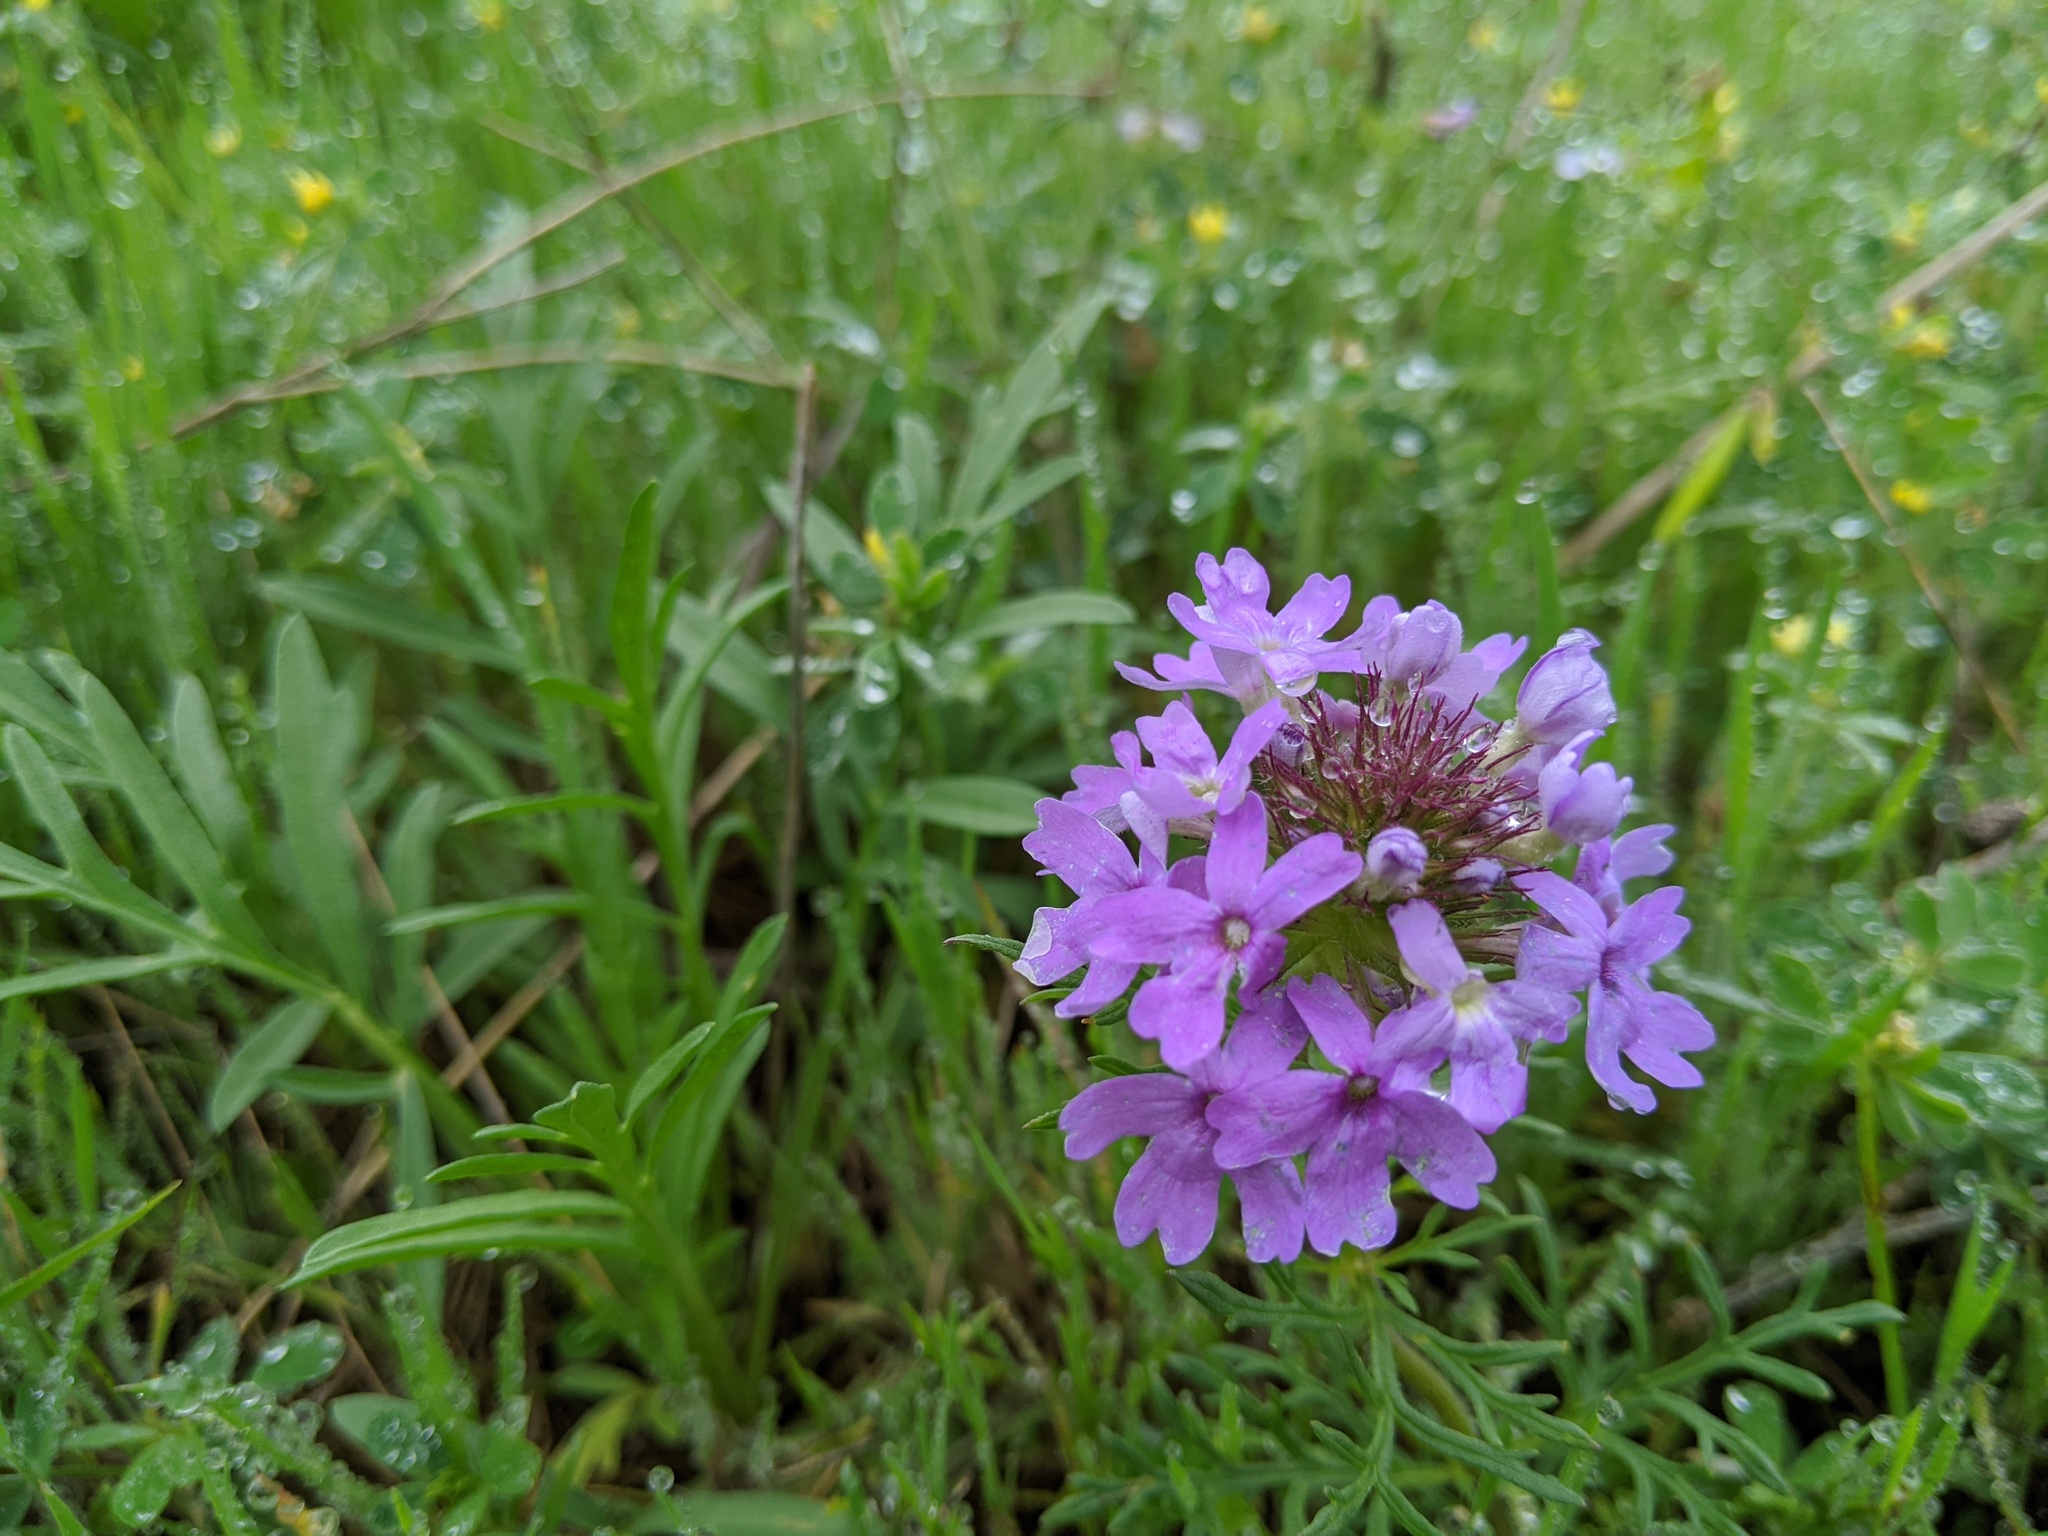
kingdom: Plantae
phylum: Tracheophyta
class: Magnoliopsida
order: Lamiales
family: Verbenaceae
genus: Verbena
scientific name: Verbena bipinnatifida
